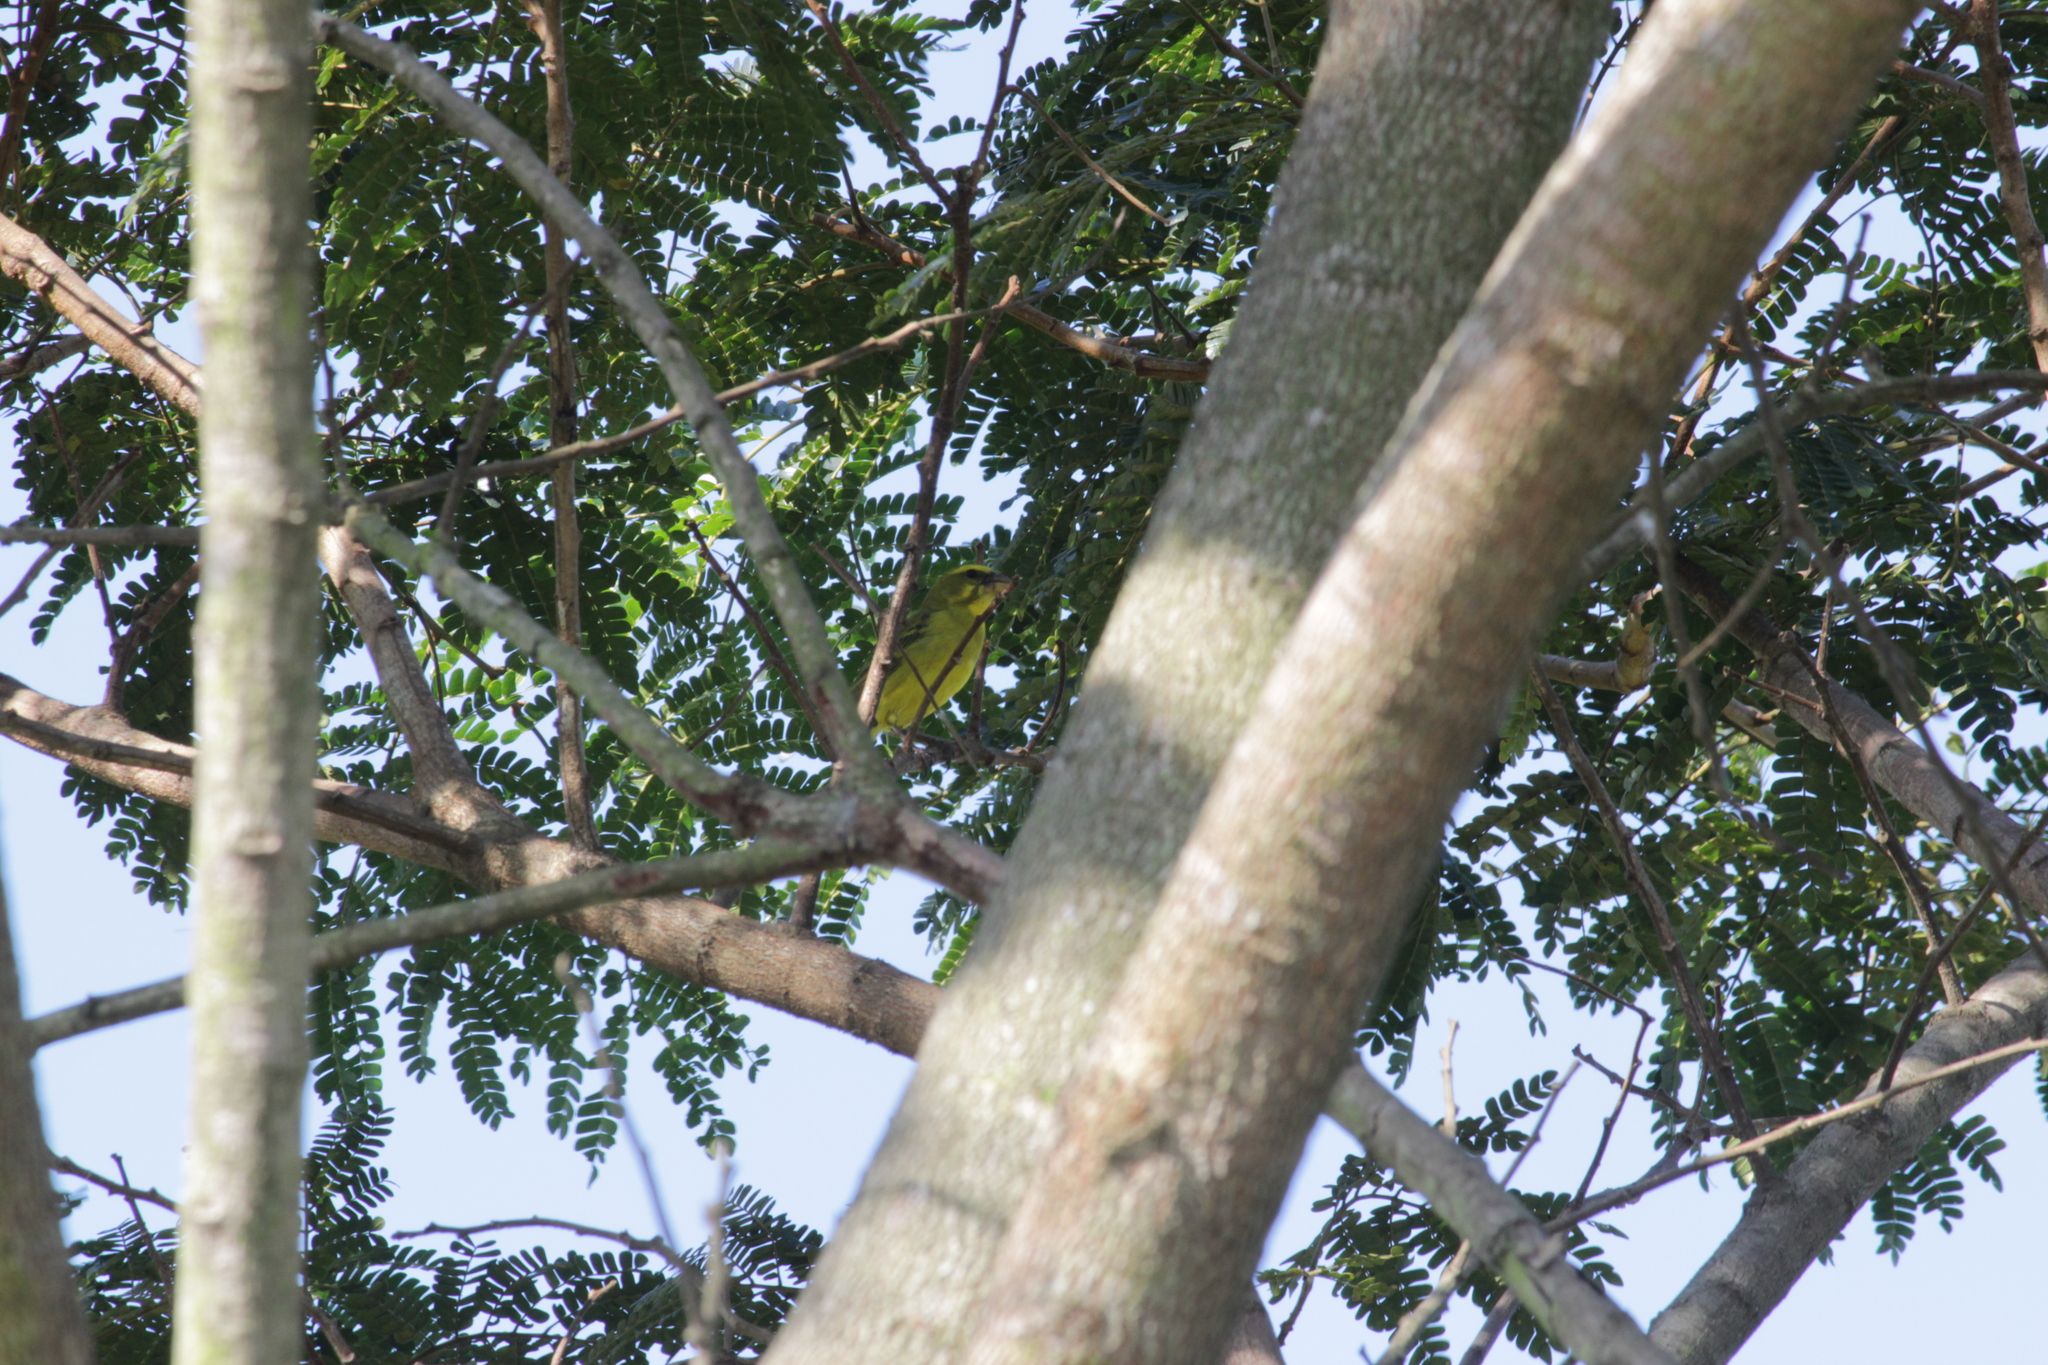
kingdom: Animalia
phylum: Chordata
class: Aves
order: Passeriformes
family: Fringillidae
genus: Crithagra
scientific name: Crithagra sulphurata
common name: Brimstone canary
